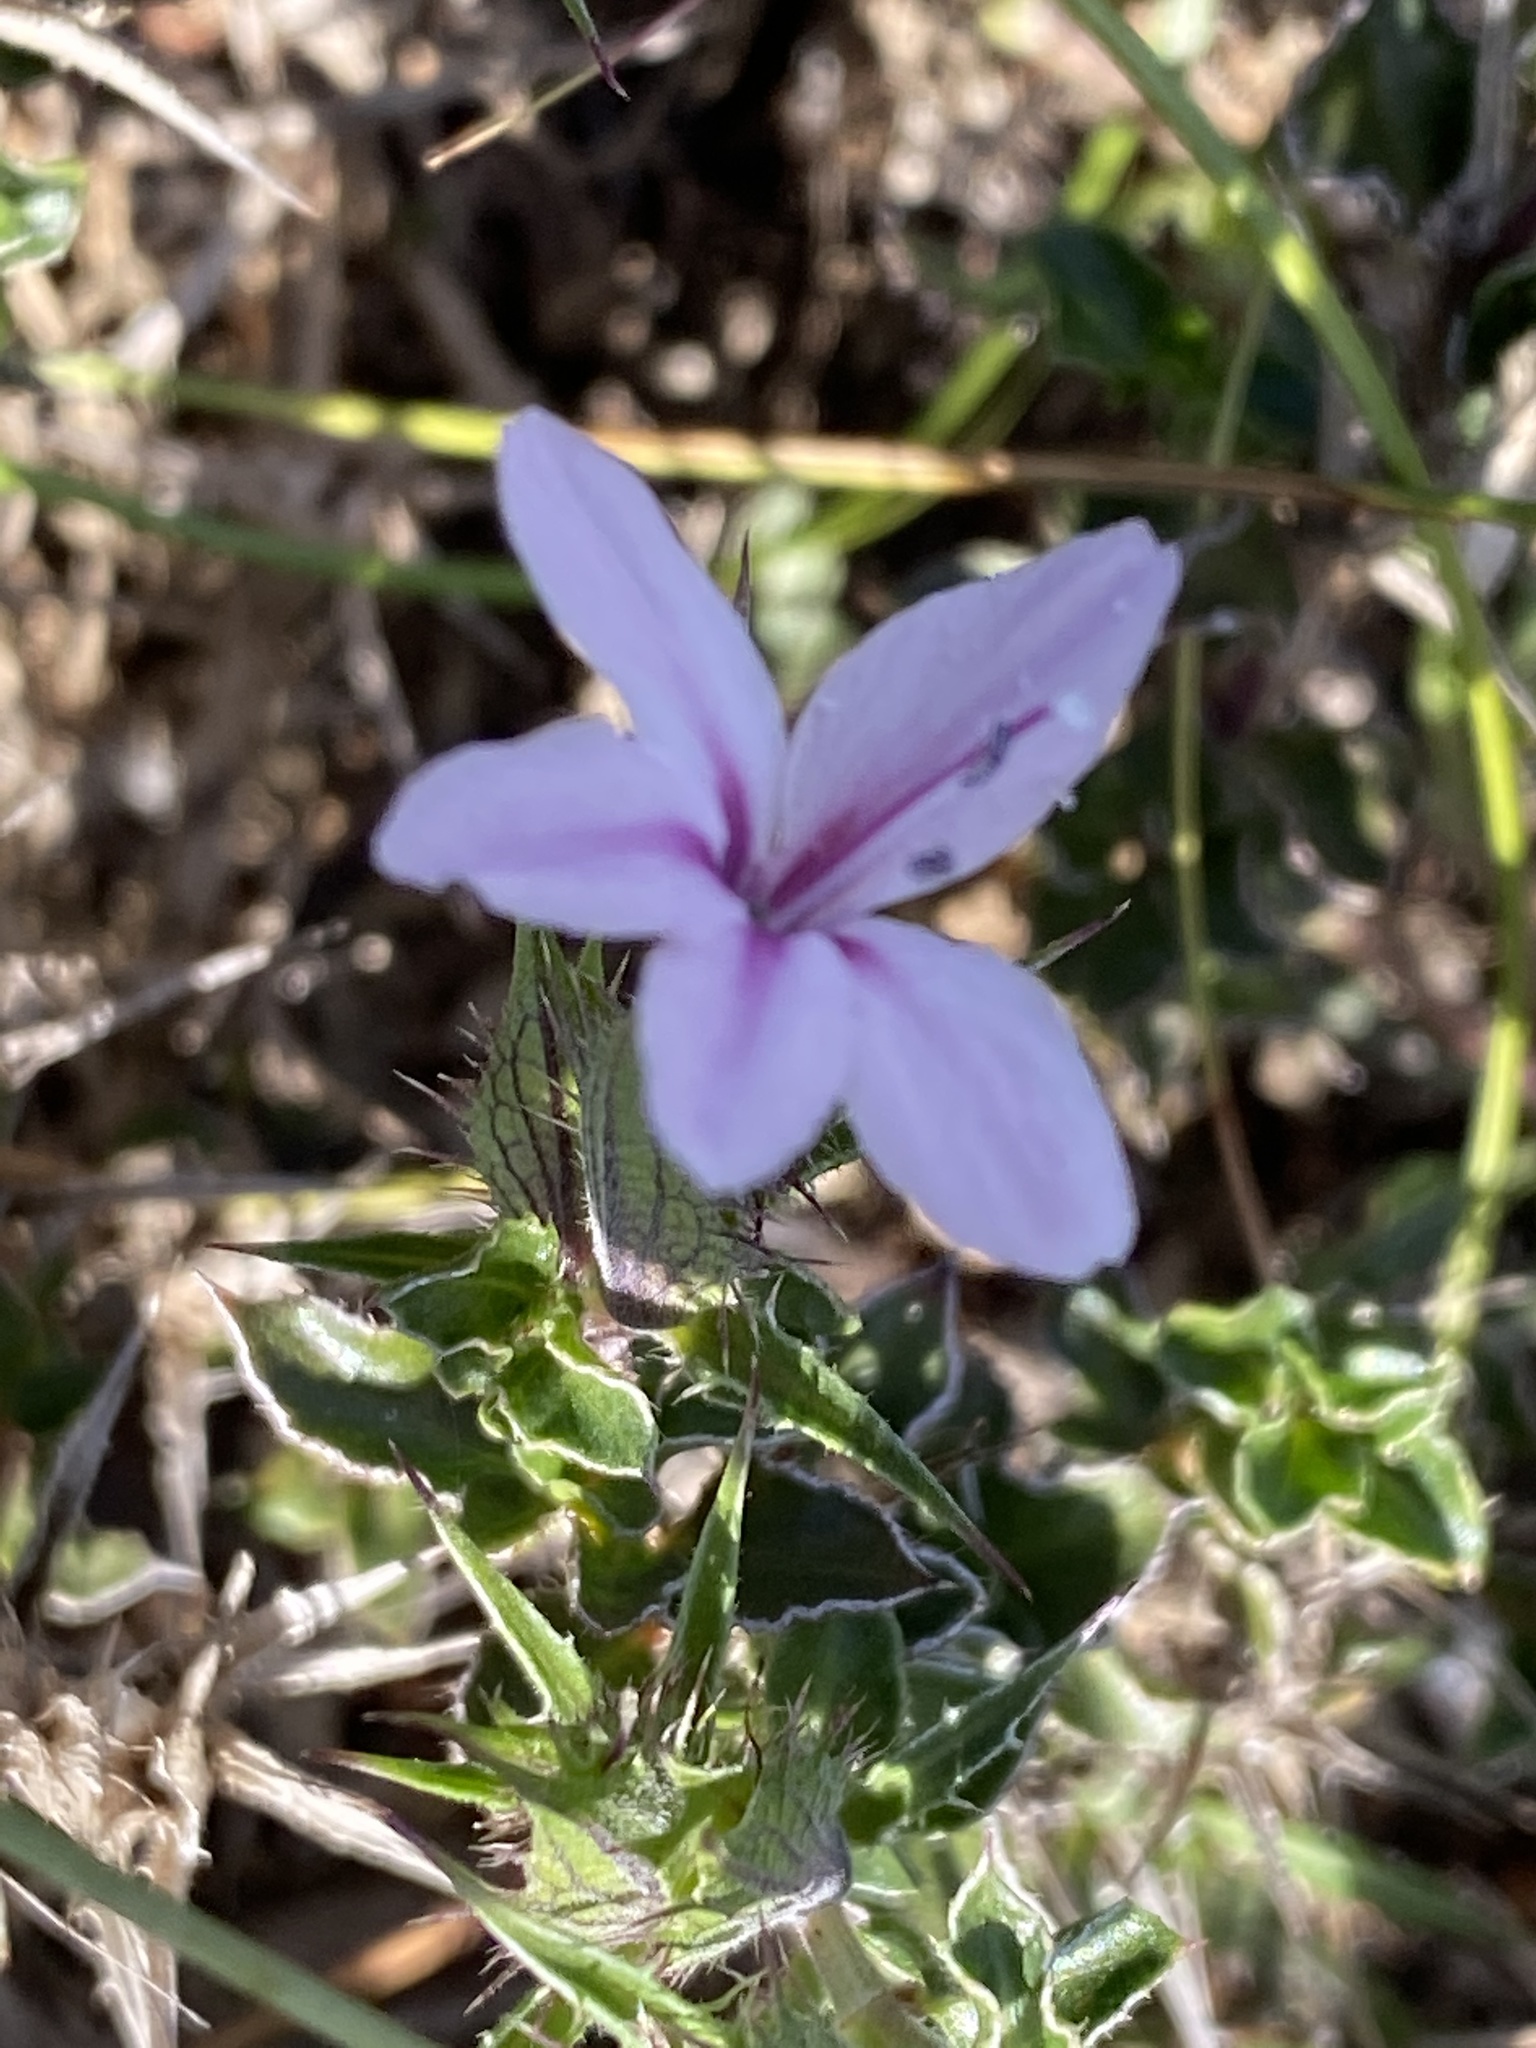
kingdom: Plantae
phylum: Tracheophyta
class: Magnoliopsida
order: Lamiales
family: Acanthaceae
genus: Barleria
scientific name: Barleria pungens
